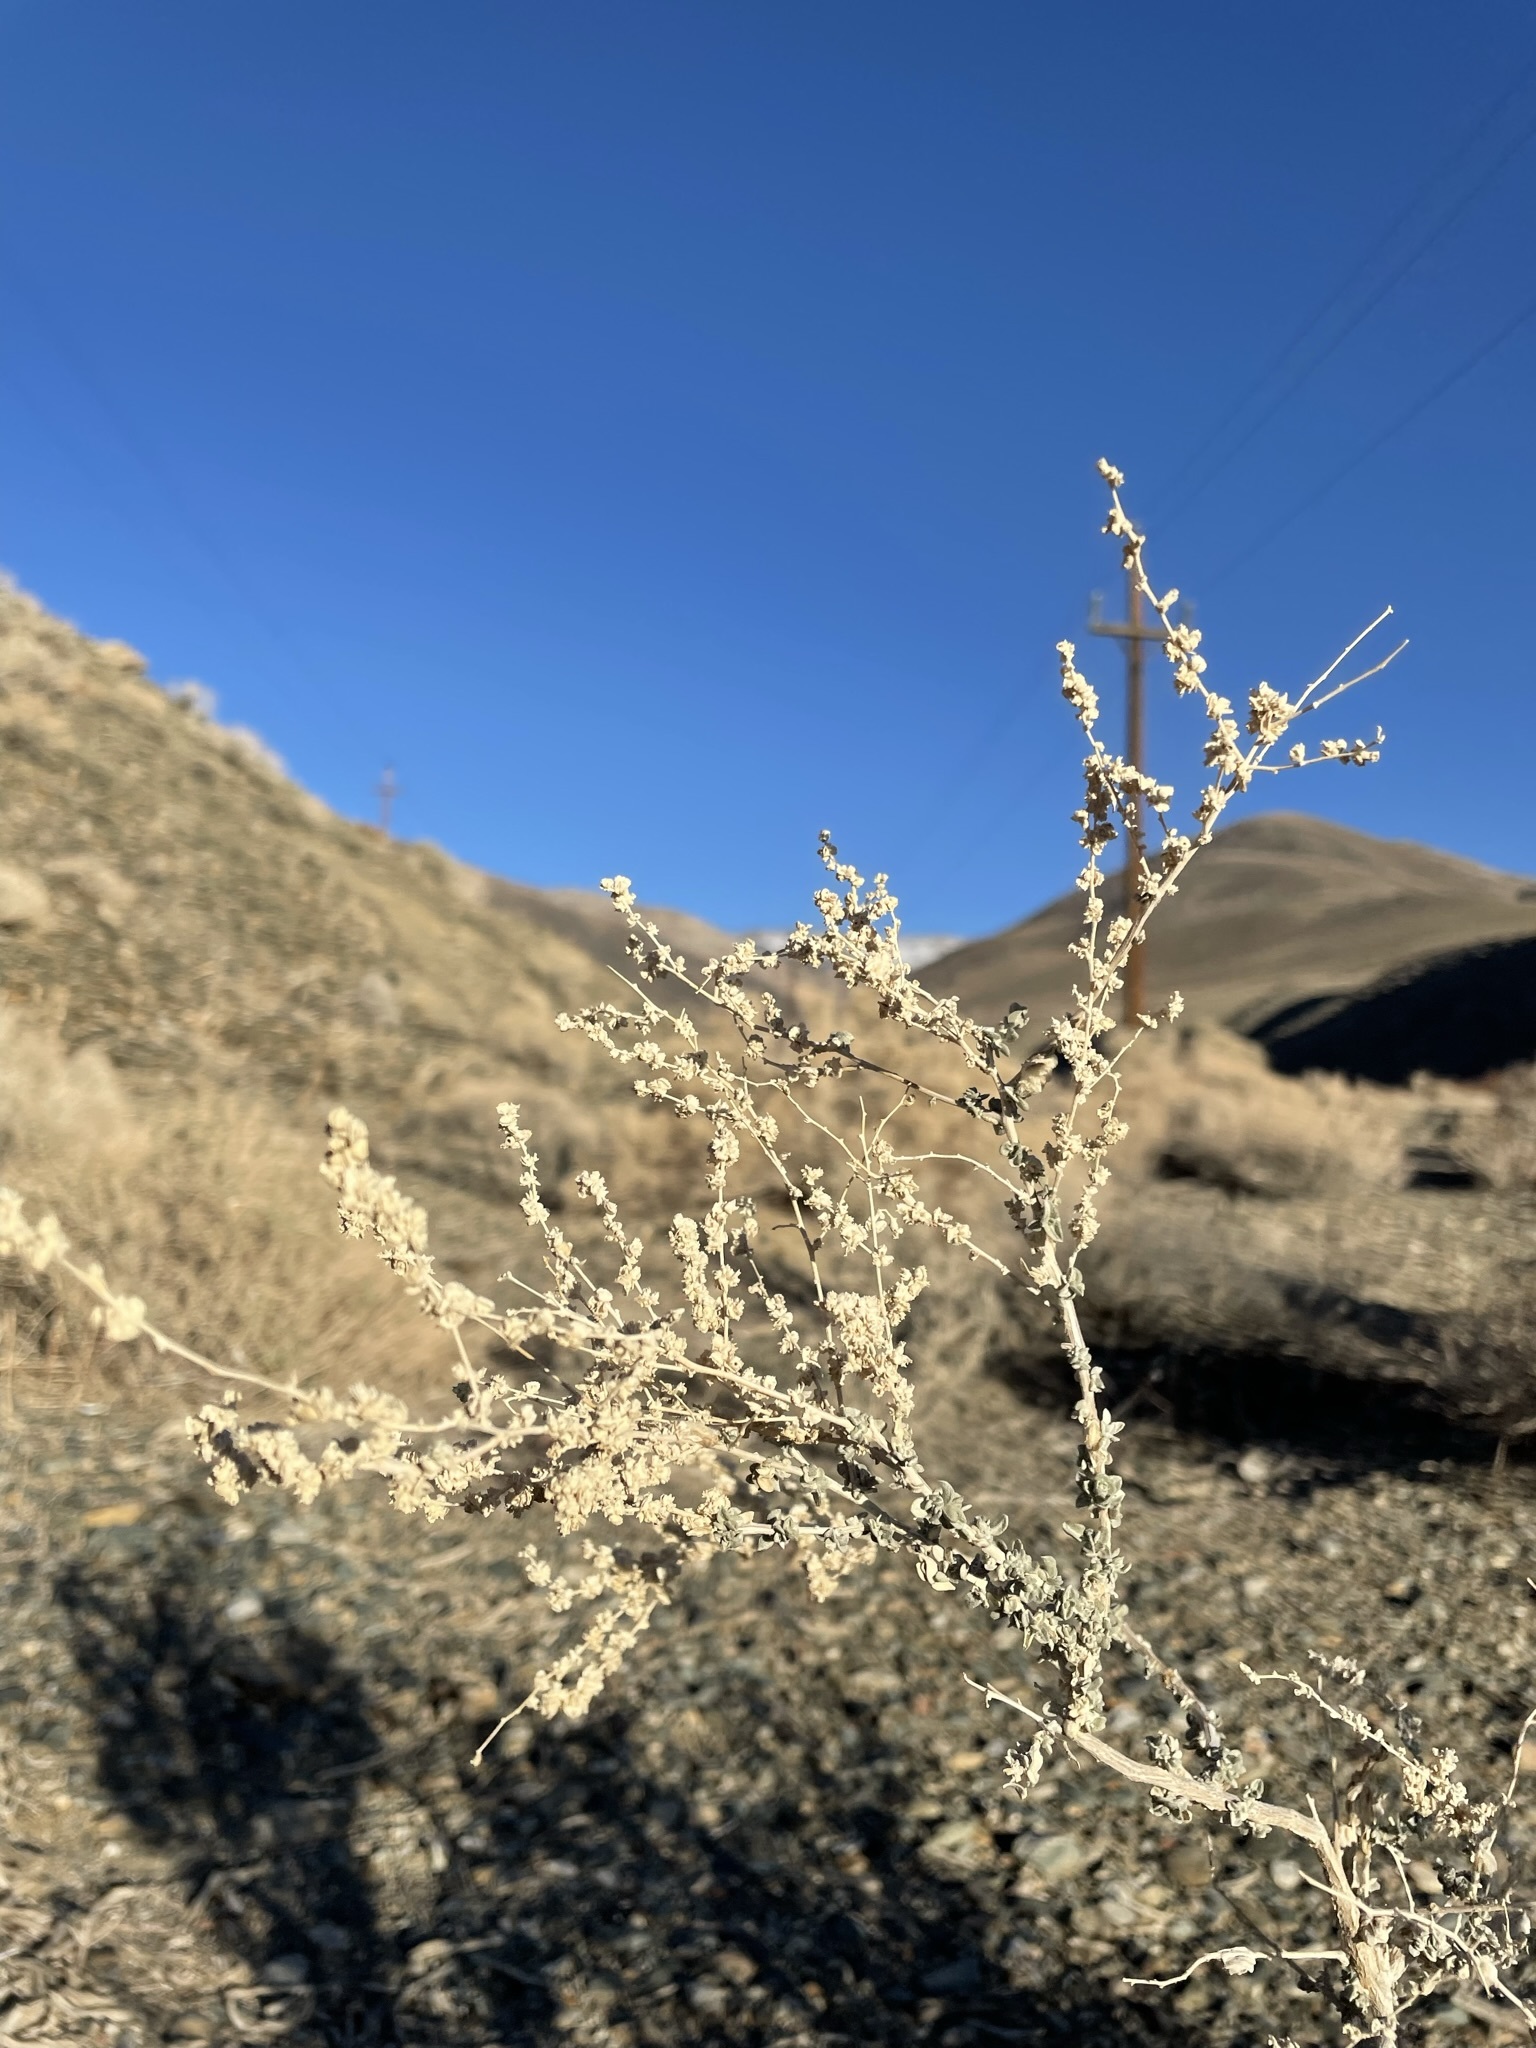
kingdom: Plantae
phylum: Tracheophyta
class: Magnoliopsida
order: Caryophyllales
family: Amaranthaceae
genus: Atriplex
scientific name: Atriplex polycarpa
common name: Desert saltbush
